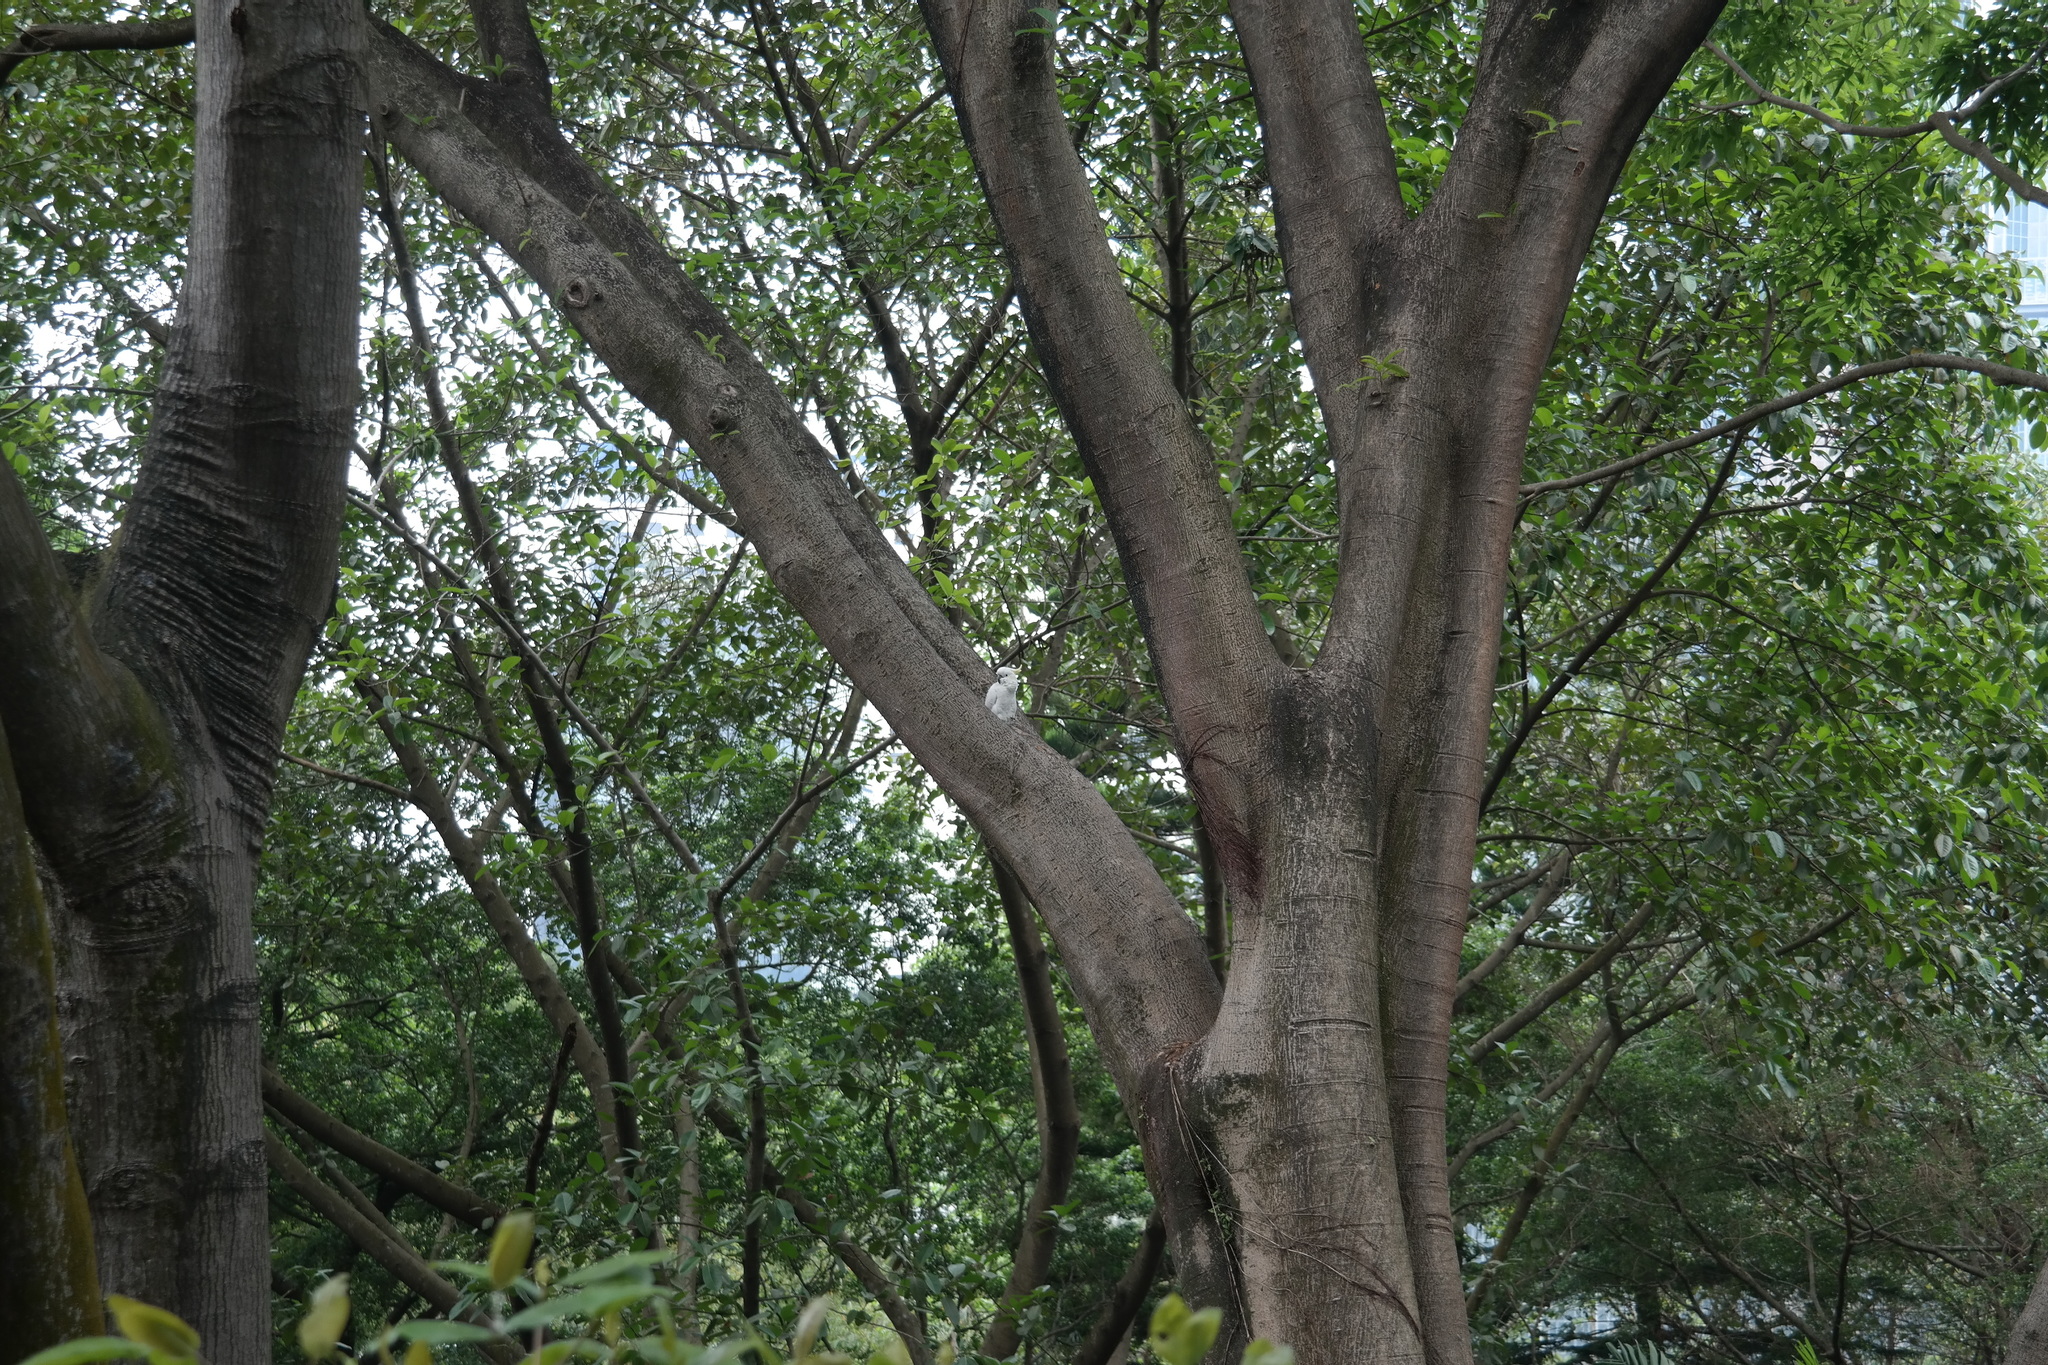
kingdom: Animalia
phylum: Chordata
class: Aves
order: Psittaciformes
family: Psittacidae
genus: Cacatua
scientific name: Cacatua sulphurea
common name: Yellow-crested cockatoo
